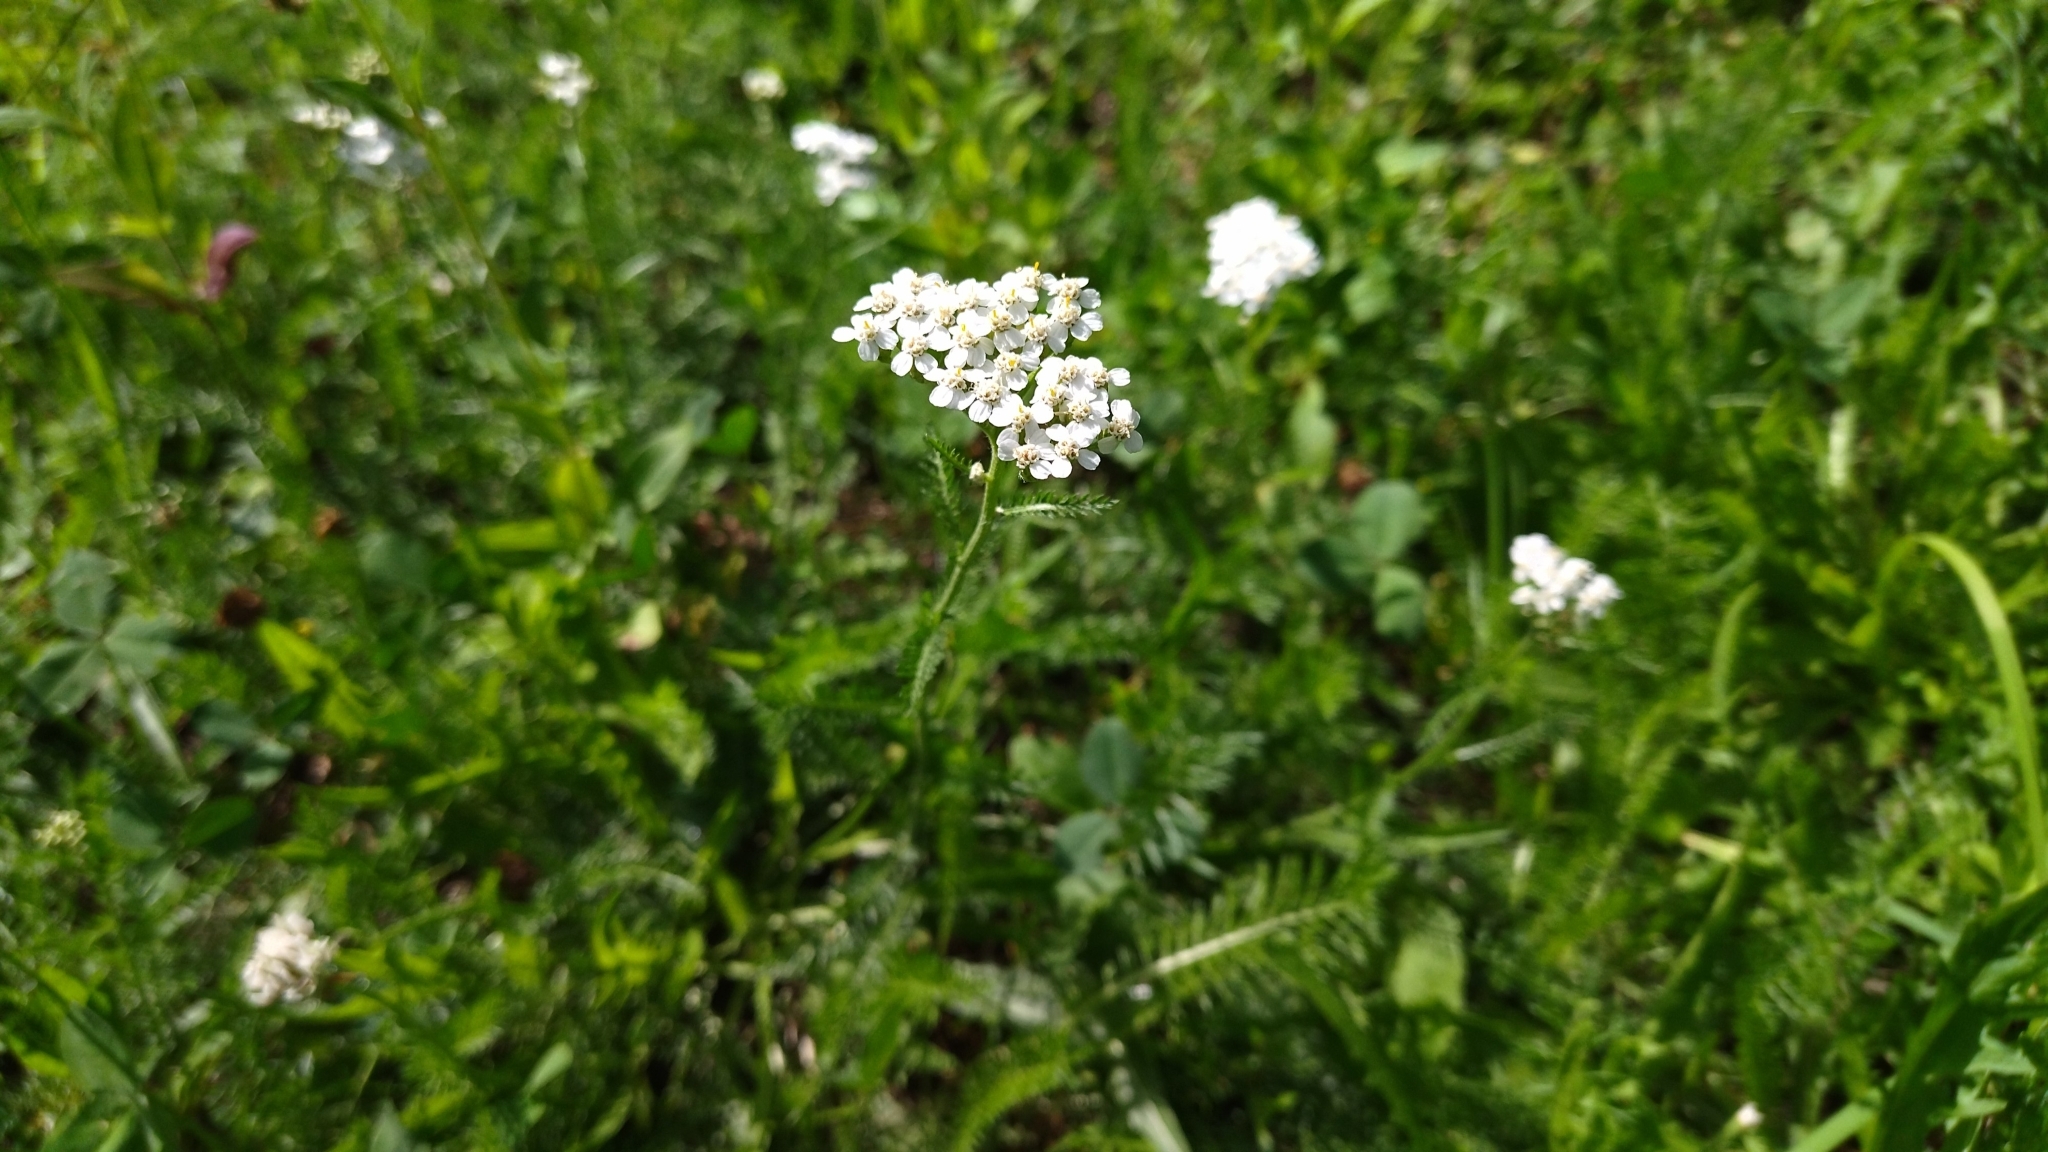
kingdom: Plantae
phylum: Tracheophyta
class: Magnoliopsida
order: Asterales
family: Asteraceae
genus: Achillea
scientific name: Achillea millefolium
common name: Yarrow
